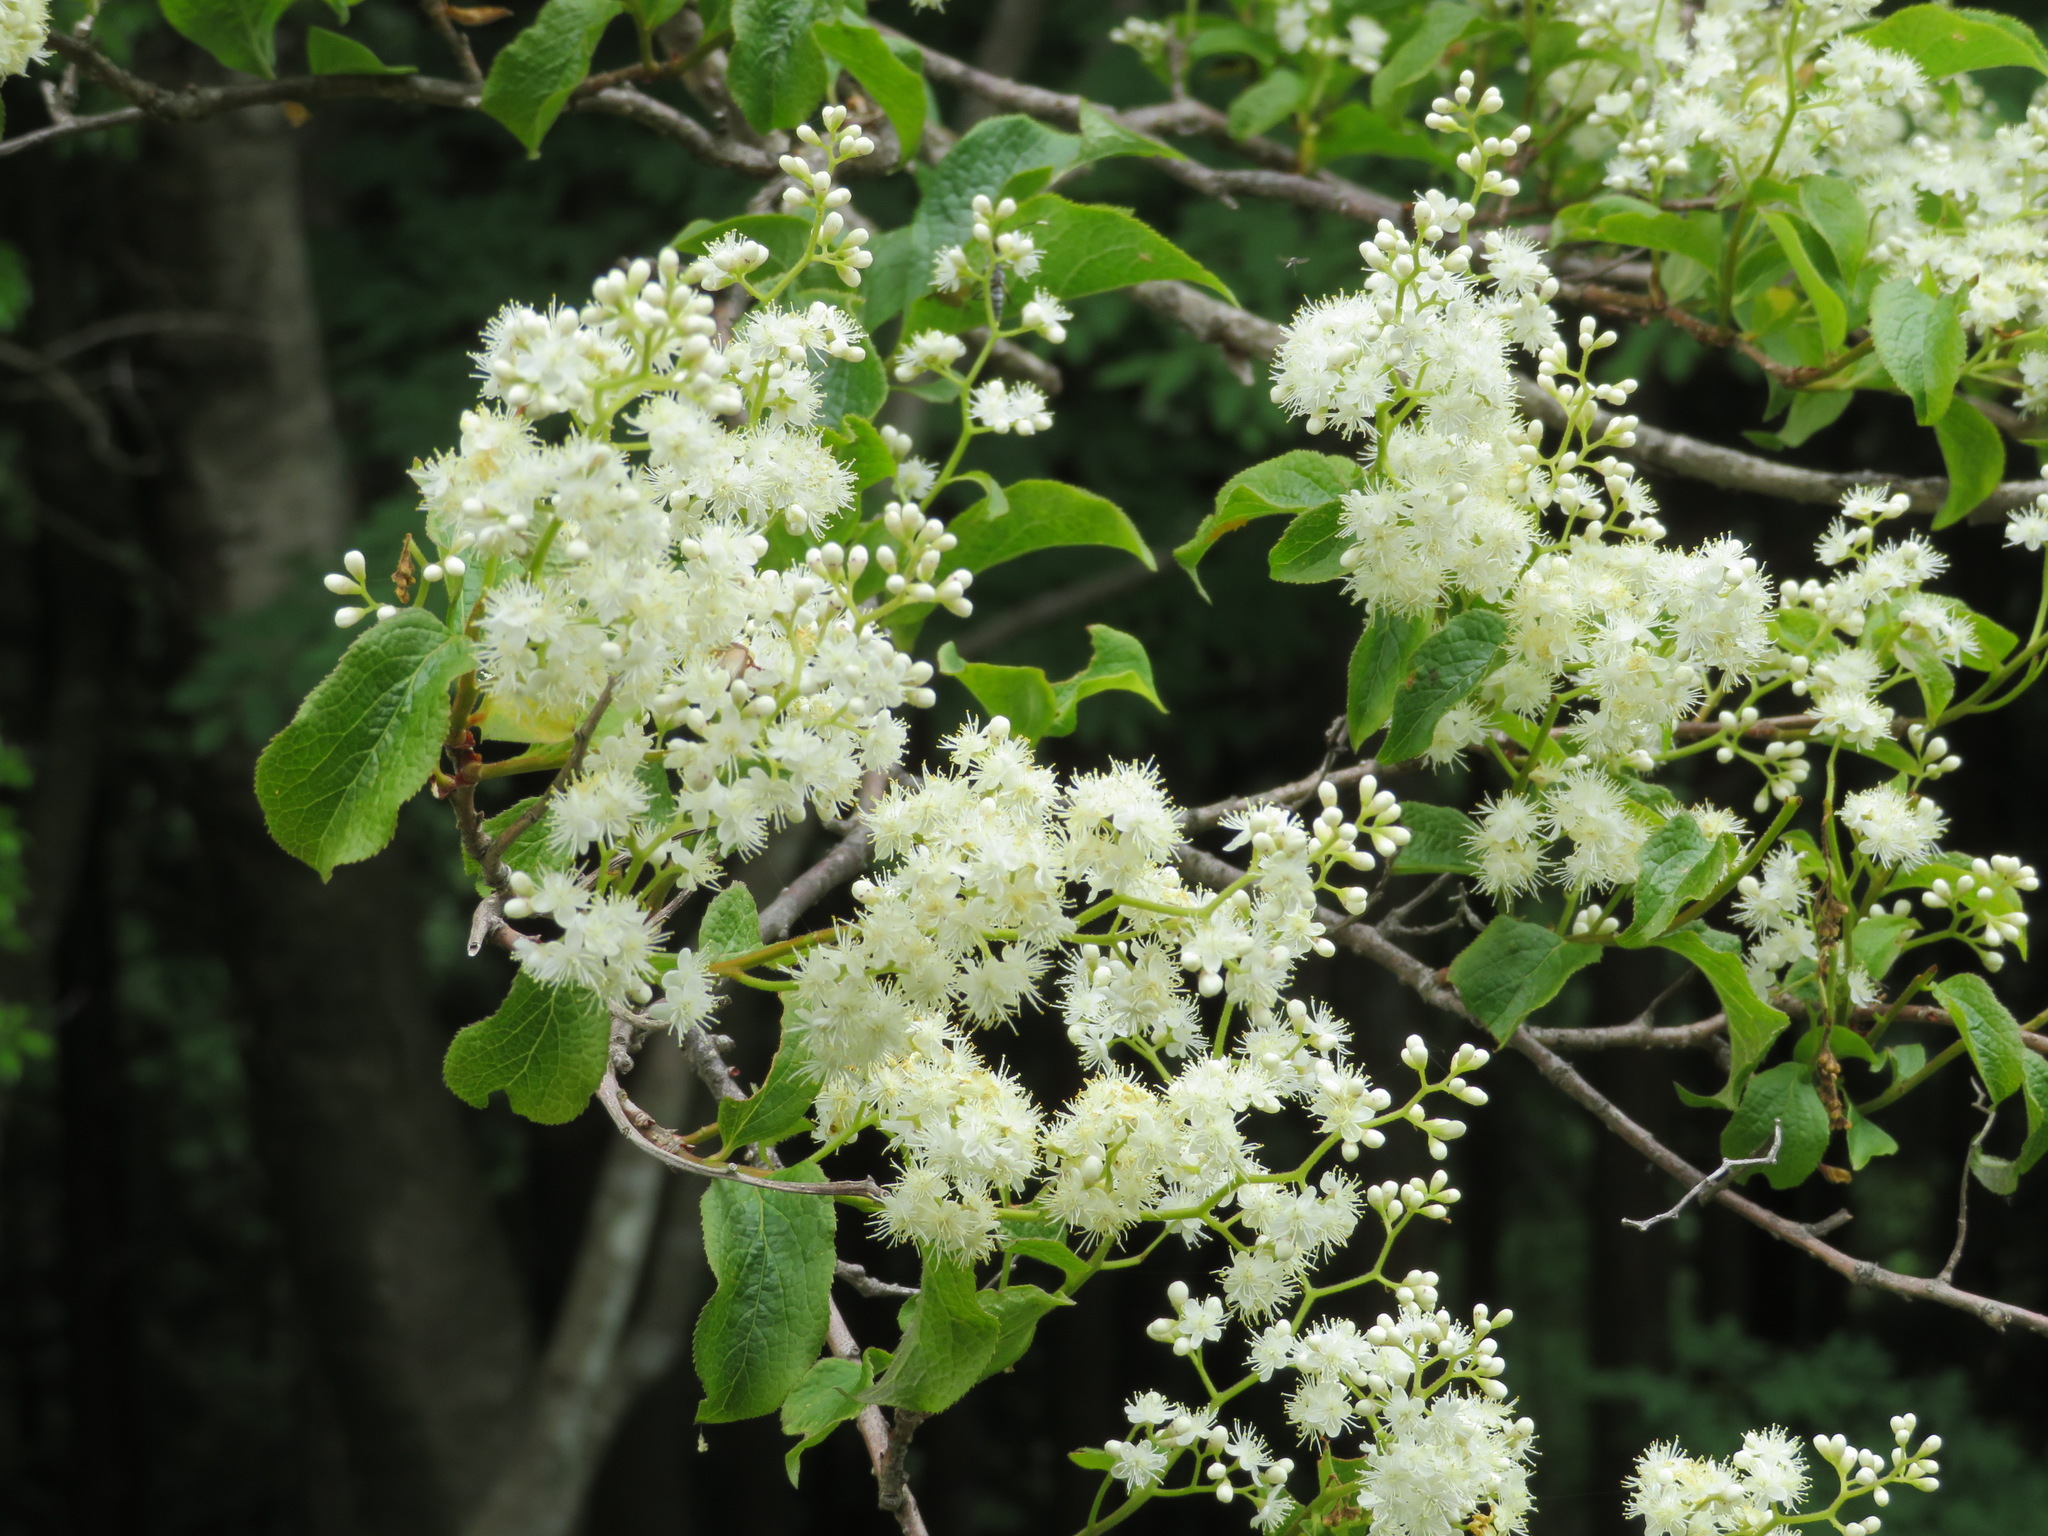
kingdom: Plantae
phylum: Tracheophyta
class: Magnoliopsida
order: Ericales
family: Symplocaceae
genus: Symplocos
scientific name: Symplocos sawafutagi
